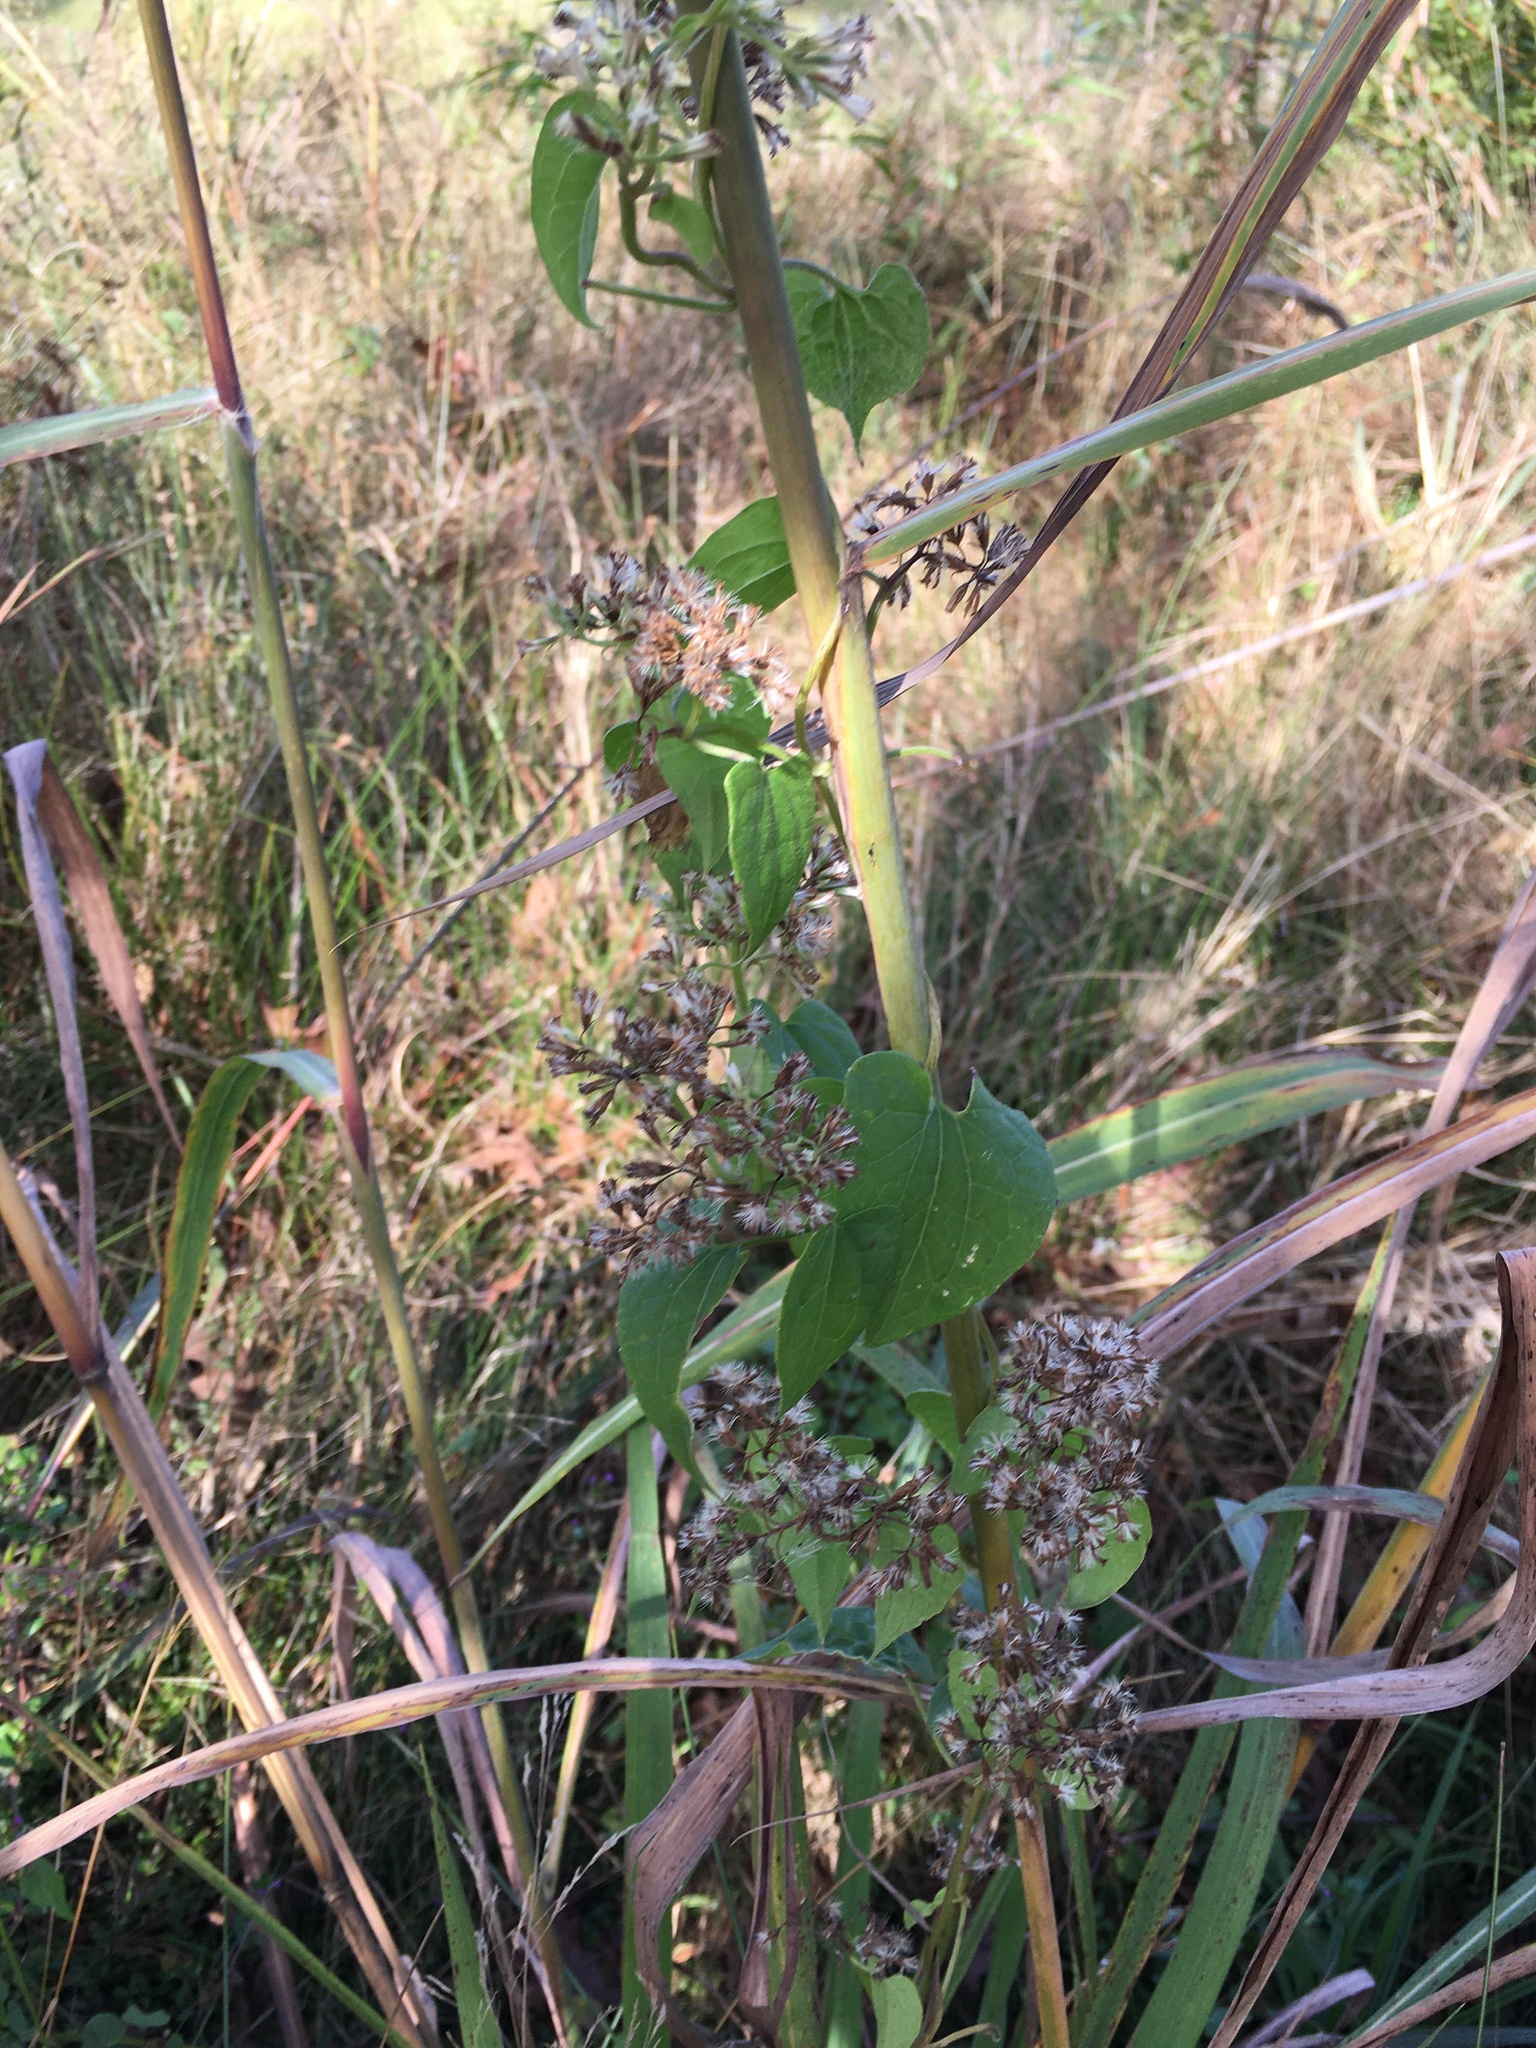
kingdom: Plantae
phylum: Tracheophyta
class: Magnoliopsida
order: Asterales
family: Asteraceae
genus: Mikania
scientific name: Mikania scandens
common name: Climbing hempvine
